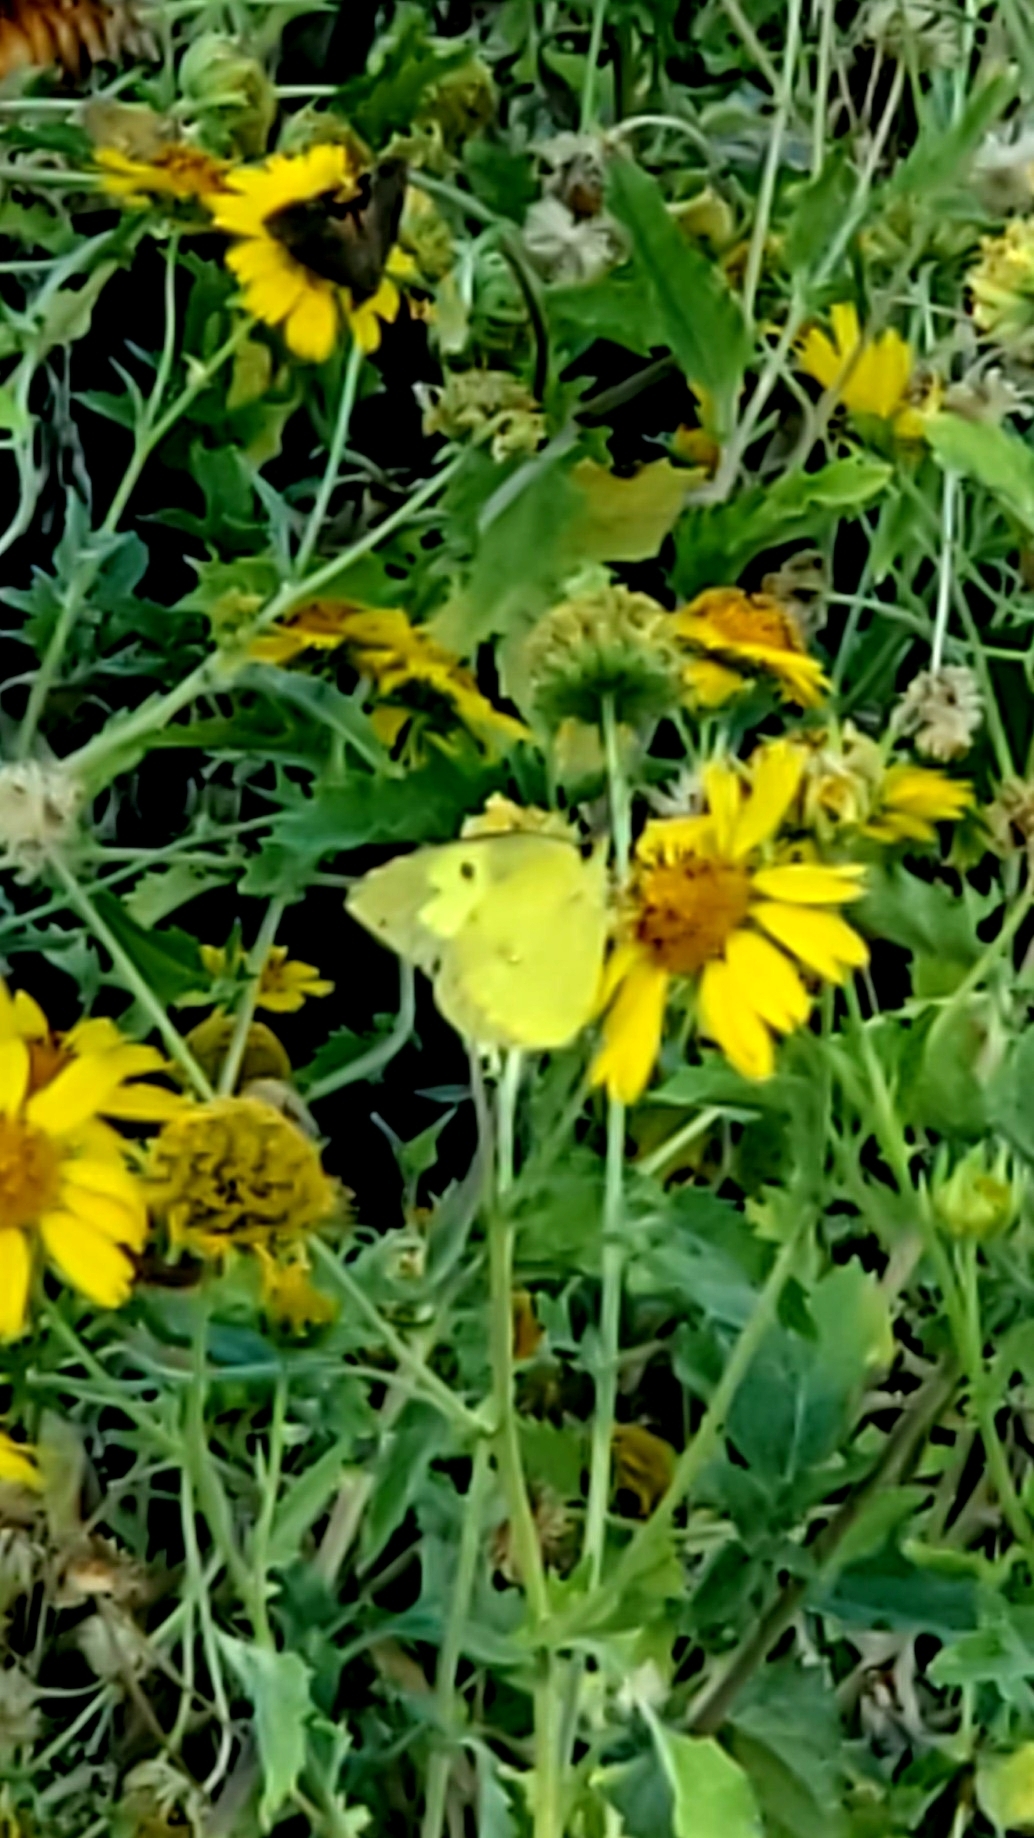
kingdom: Animalia
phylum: Arthropoda
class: Insecta
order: Lepidoptera
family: Pieridae
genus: Zerene
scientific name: Zerene cesonia
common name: Southern dogface
